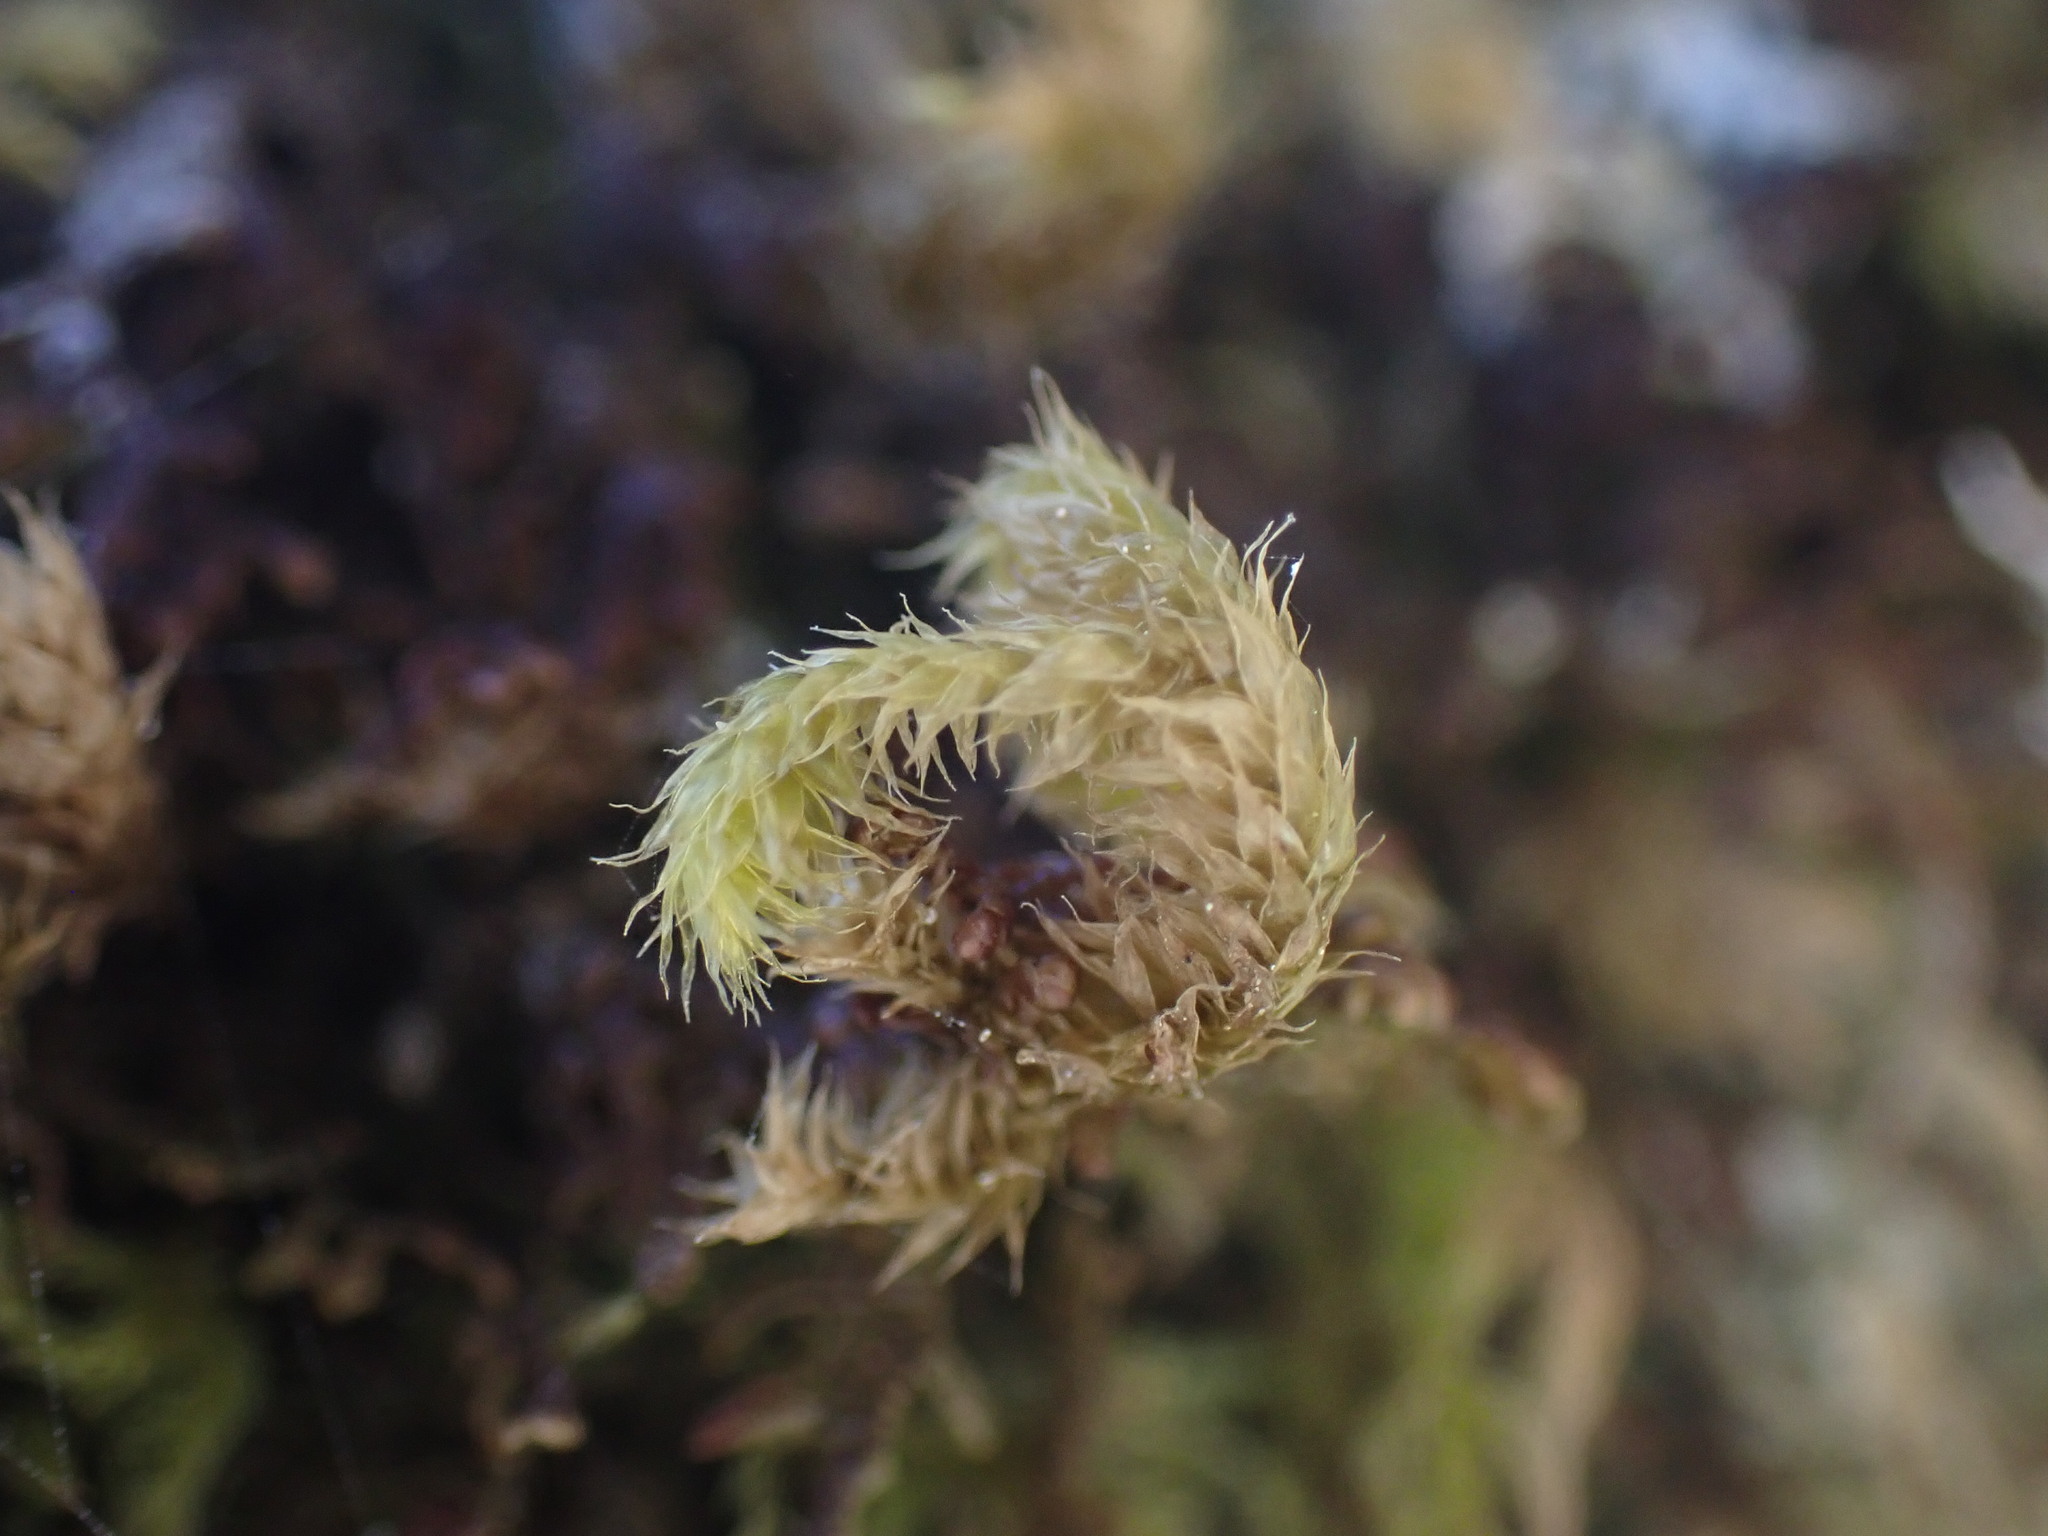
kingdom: Plantae
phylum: Bryophyta
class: Bryopsida
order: Hypnales
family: Antitrichiaceae
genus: Antitrichia
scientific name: Antitrichia curtipendula
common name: Pendulous wing-moss
